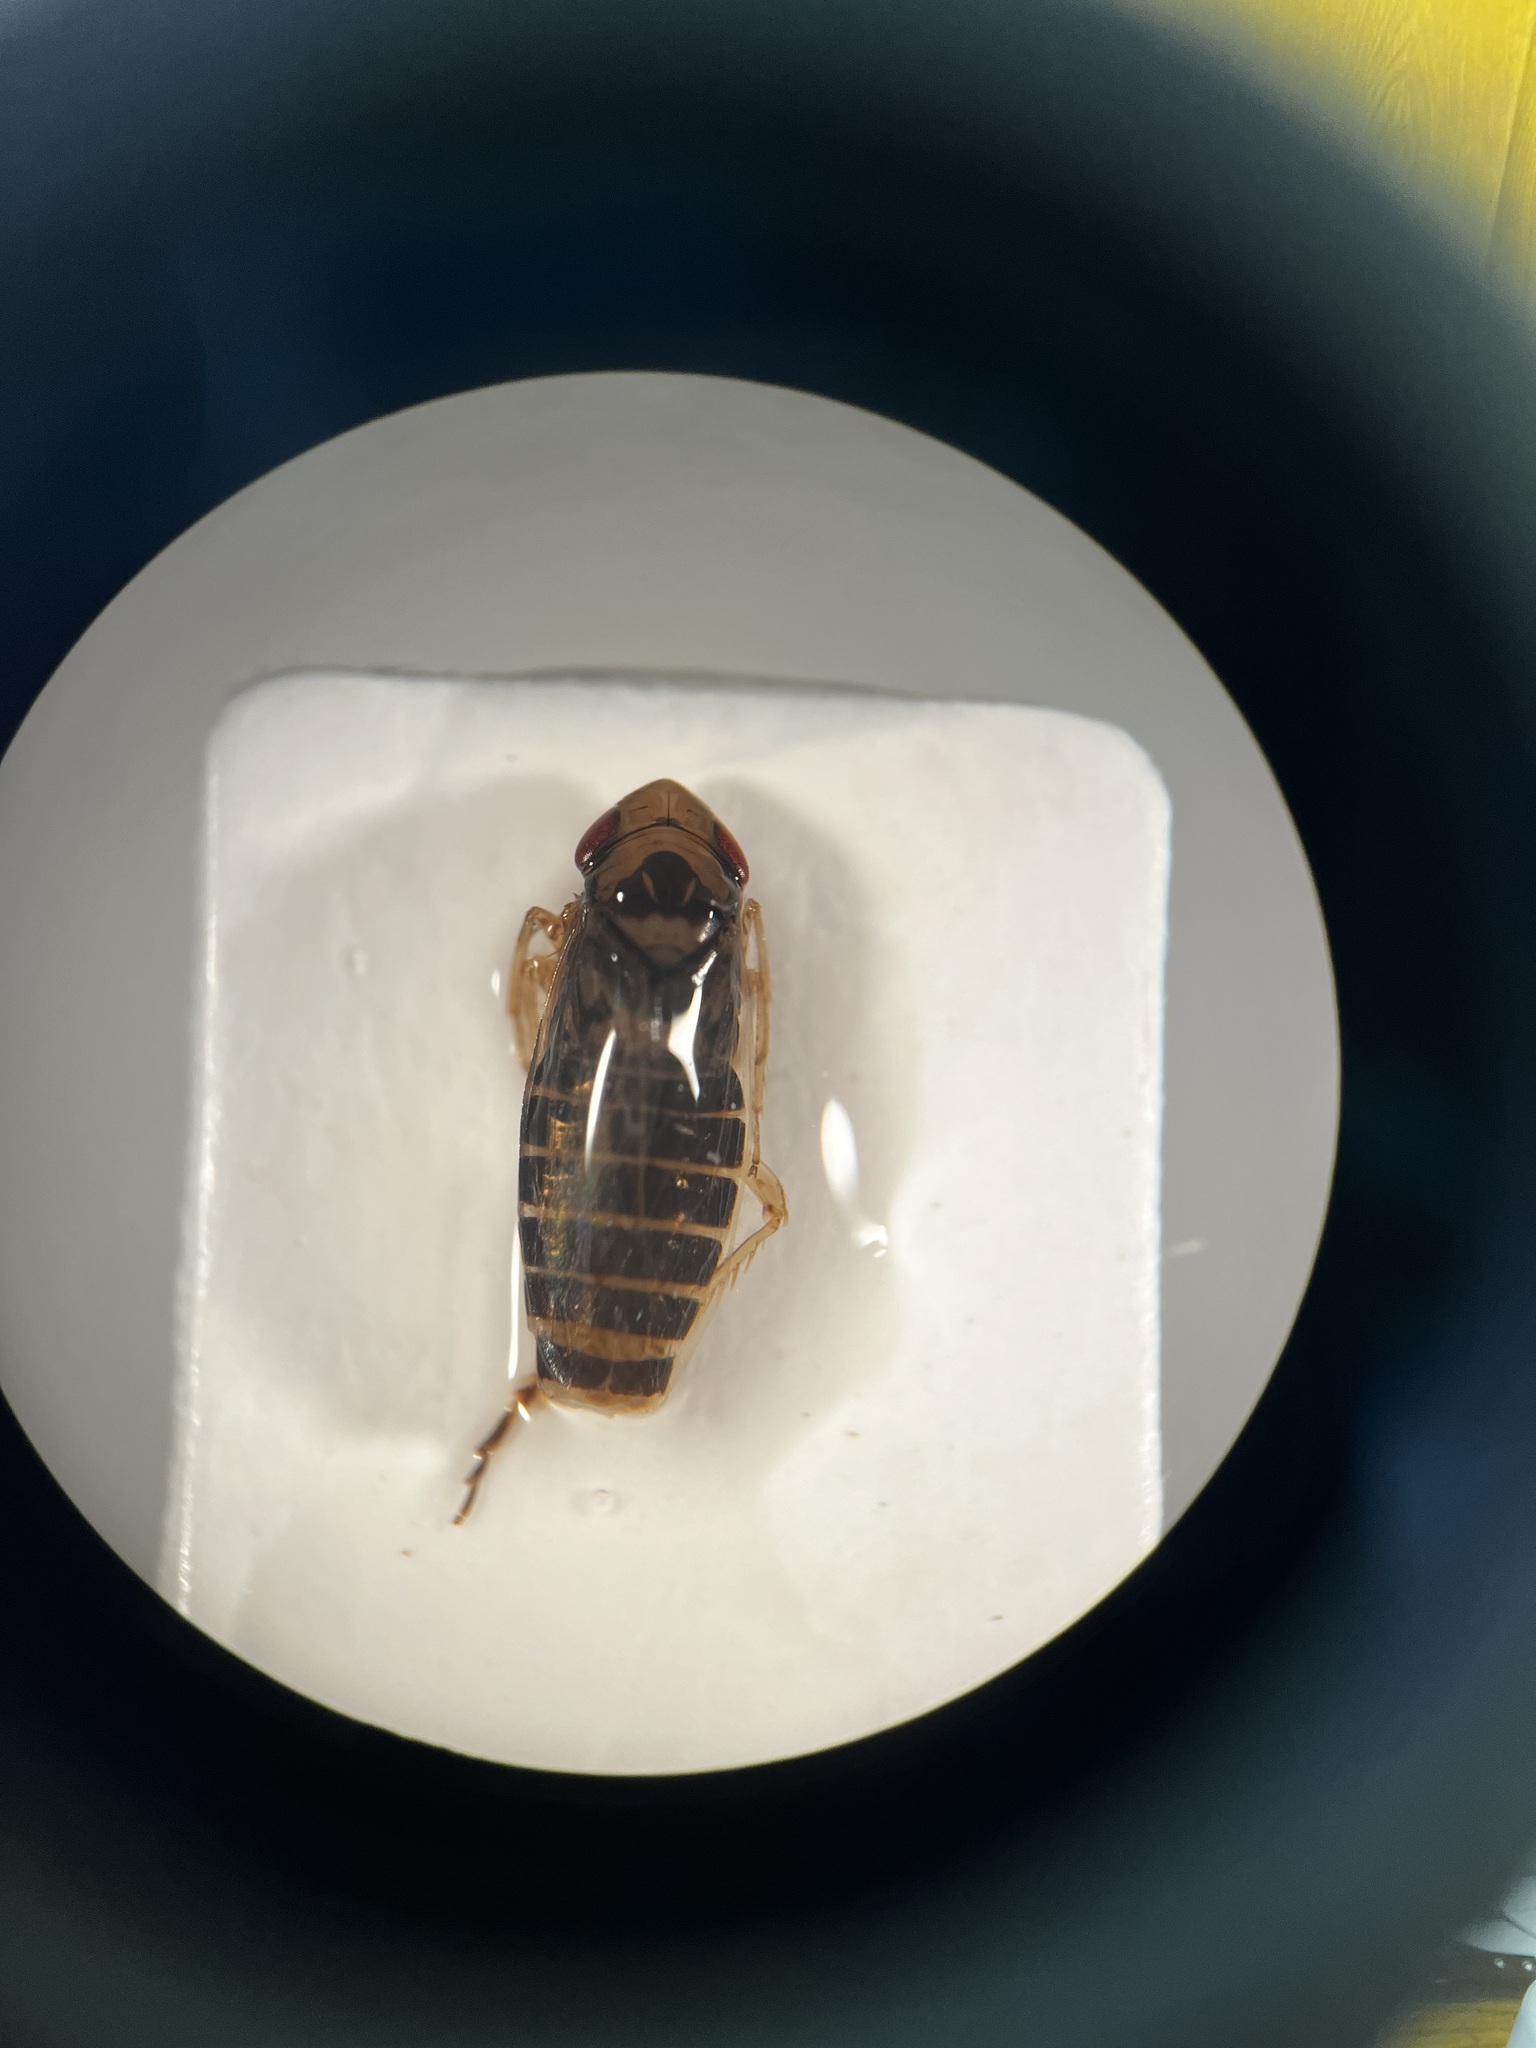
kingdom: Animalia
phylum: Arthropoda
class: Insecta
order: Hemiptera
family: Cicadellidae
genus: Psammotettix
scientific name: Psammotettix confinis
